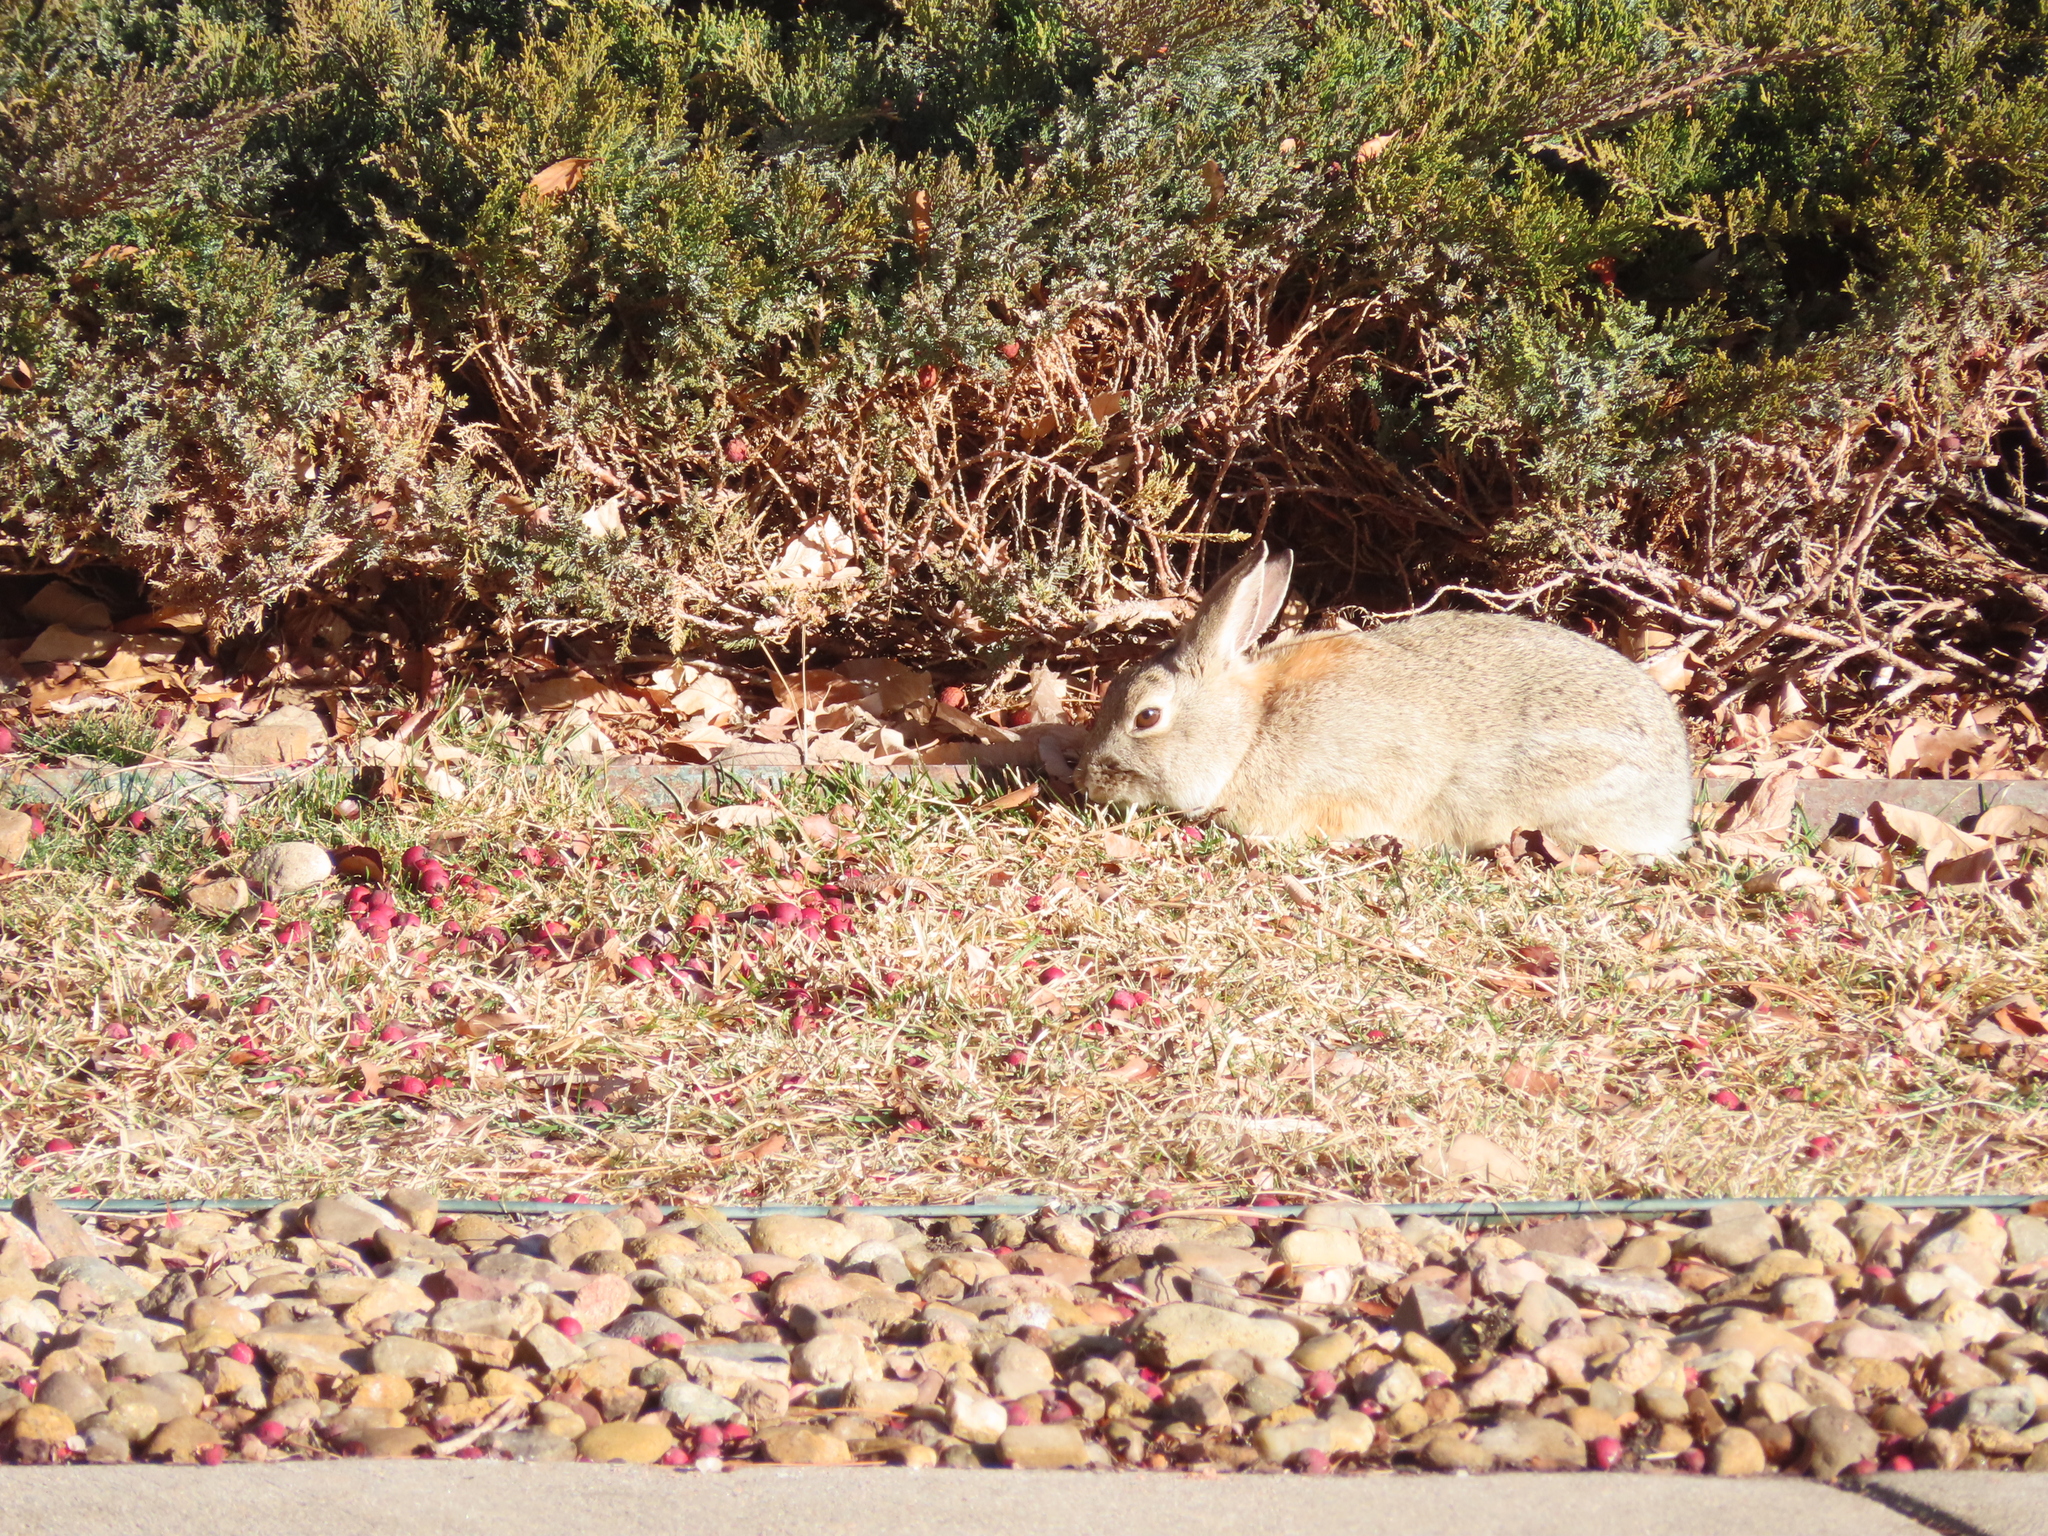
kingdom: Animalia
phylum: Chordata
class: Mammalia
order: Lagomorpha
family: Leporidae
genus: Sylvilagus
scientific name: Sylvilagus audubonii
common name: Desert cottontail
